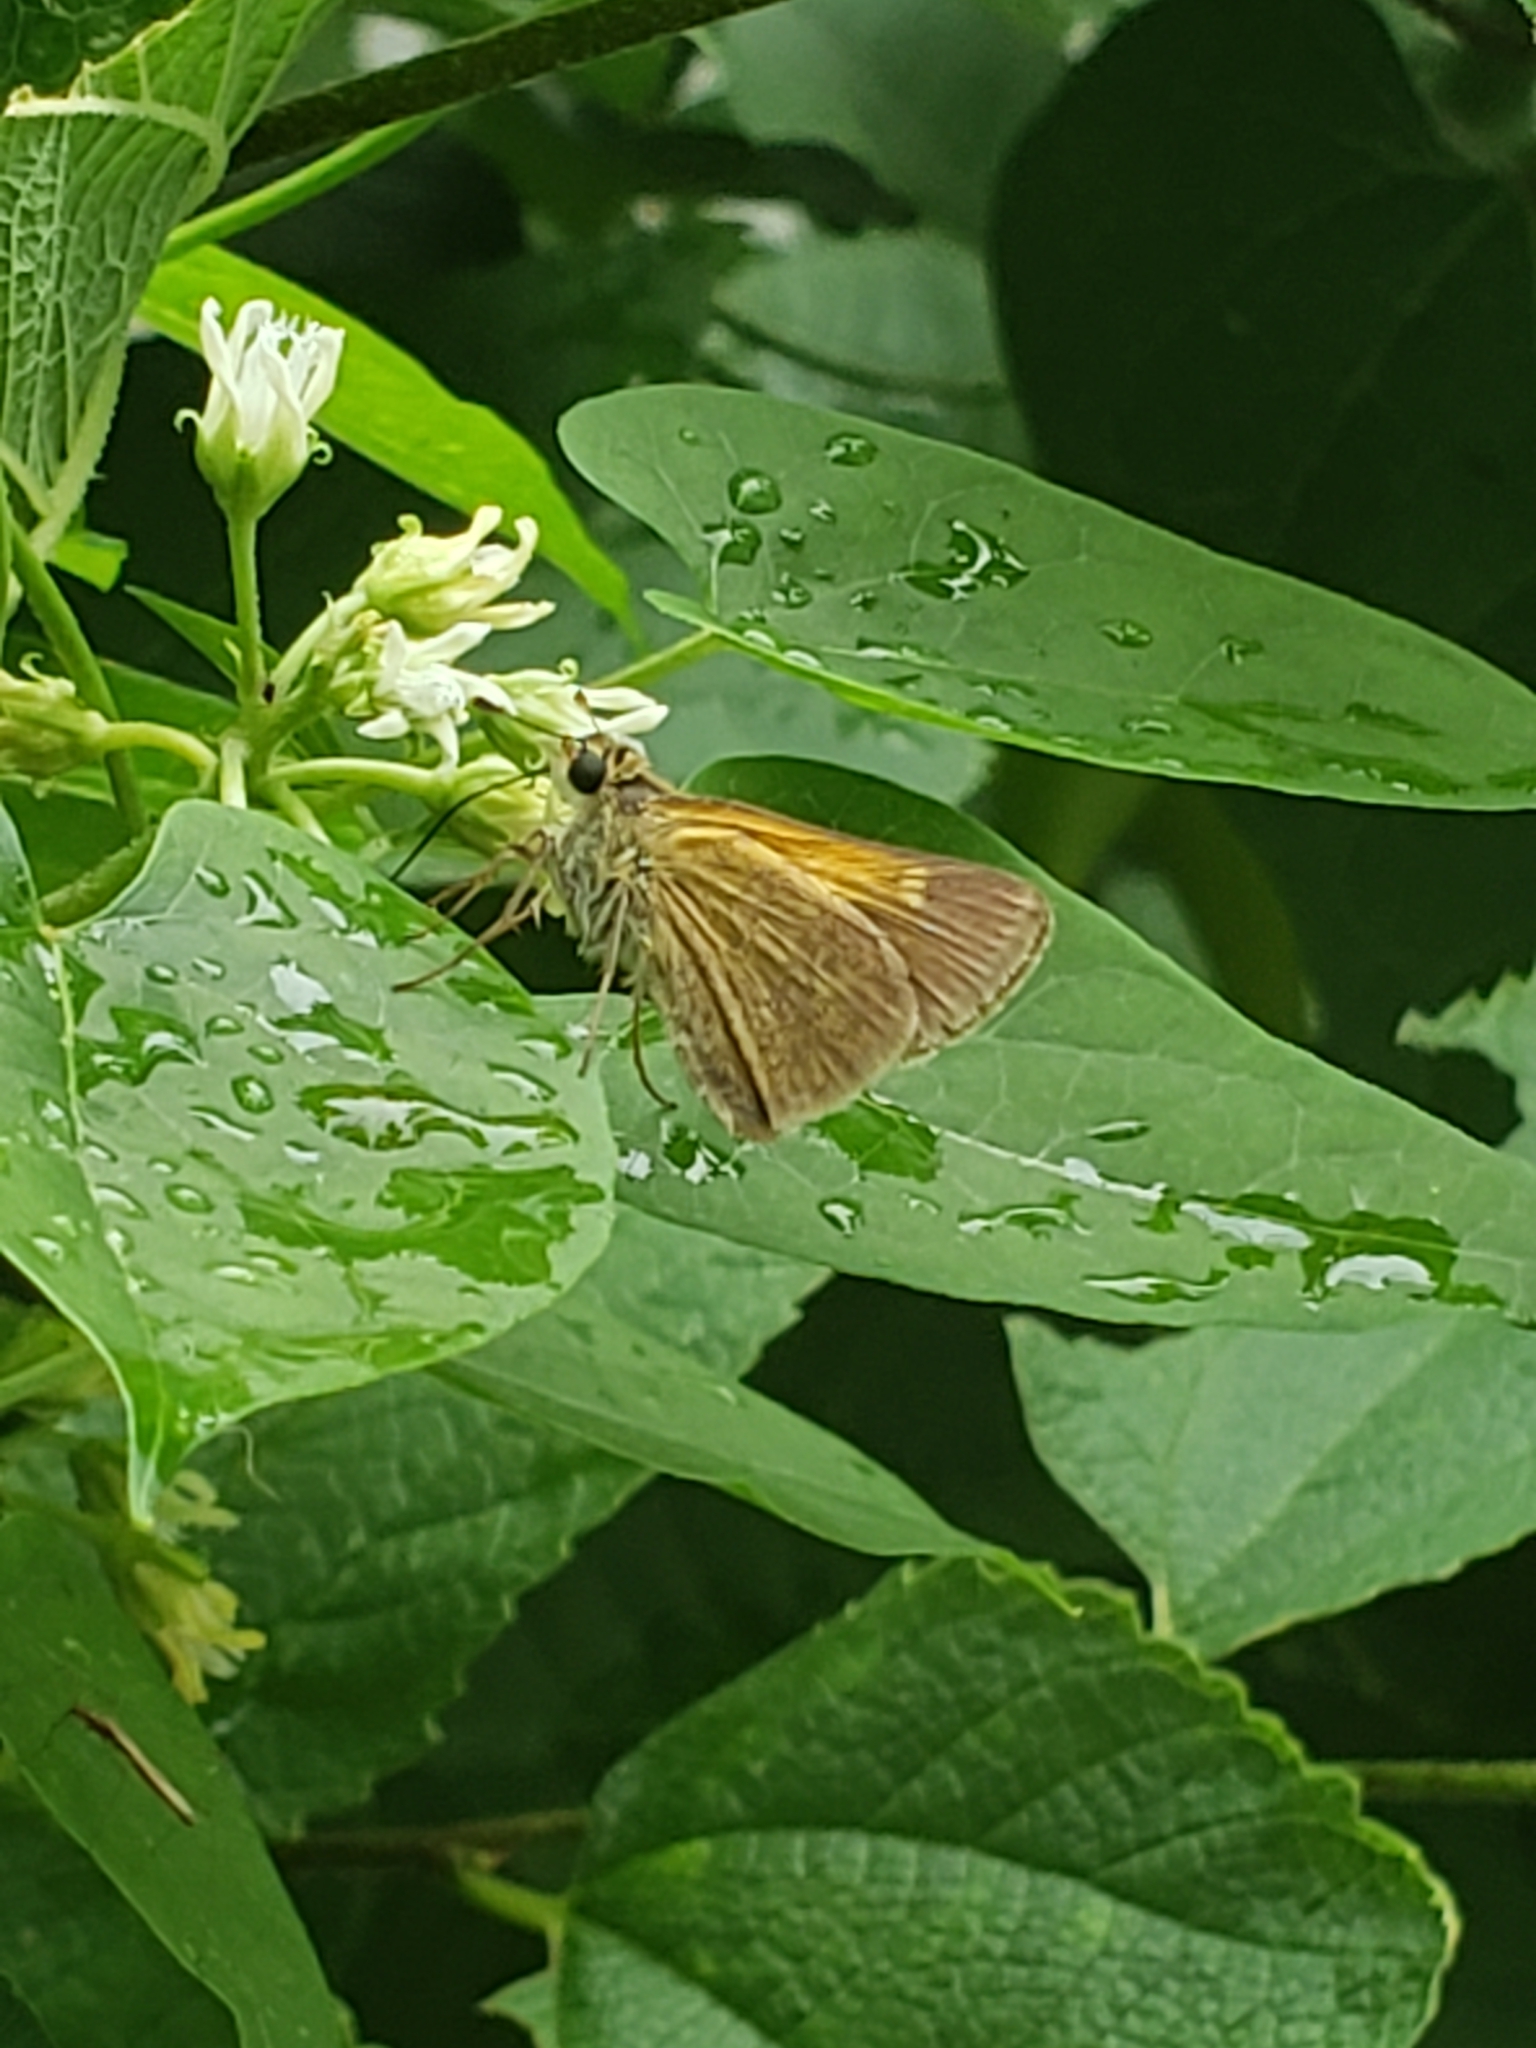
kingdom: Animalia
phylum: Arthropoda
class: Insecta
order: Lepidoptera
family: Hesperiidae
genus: Polites
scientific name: Polites themistocles
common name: Tawny-edged skipper
